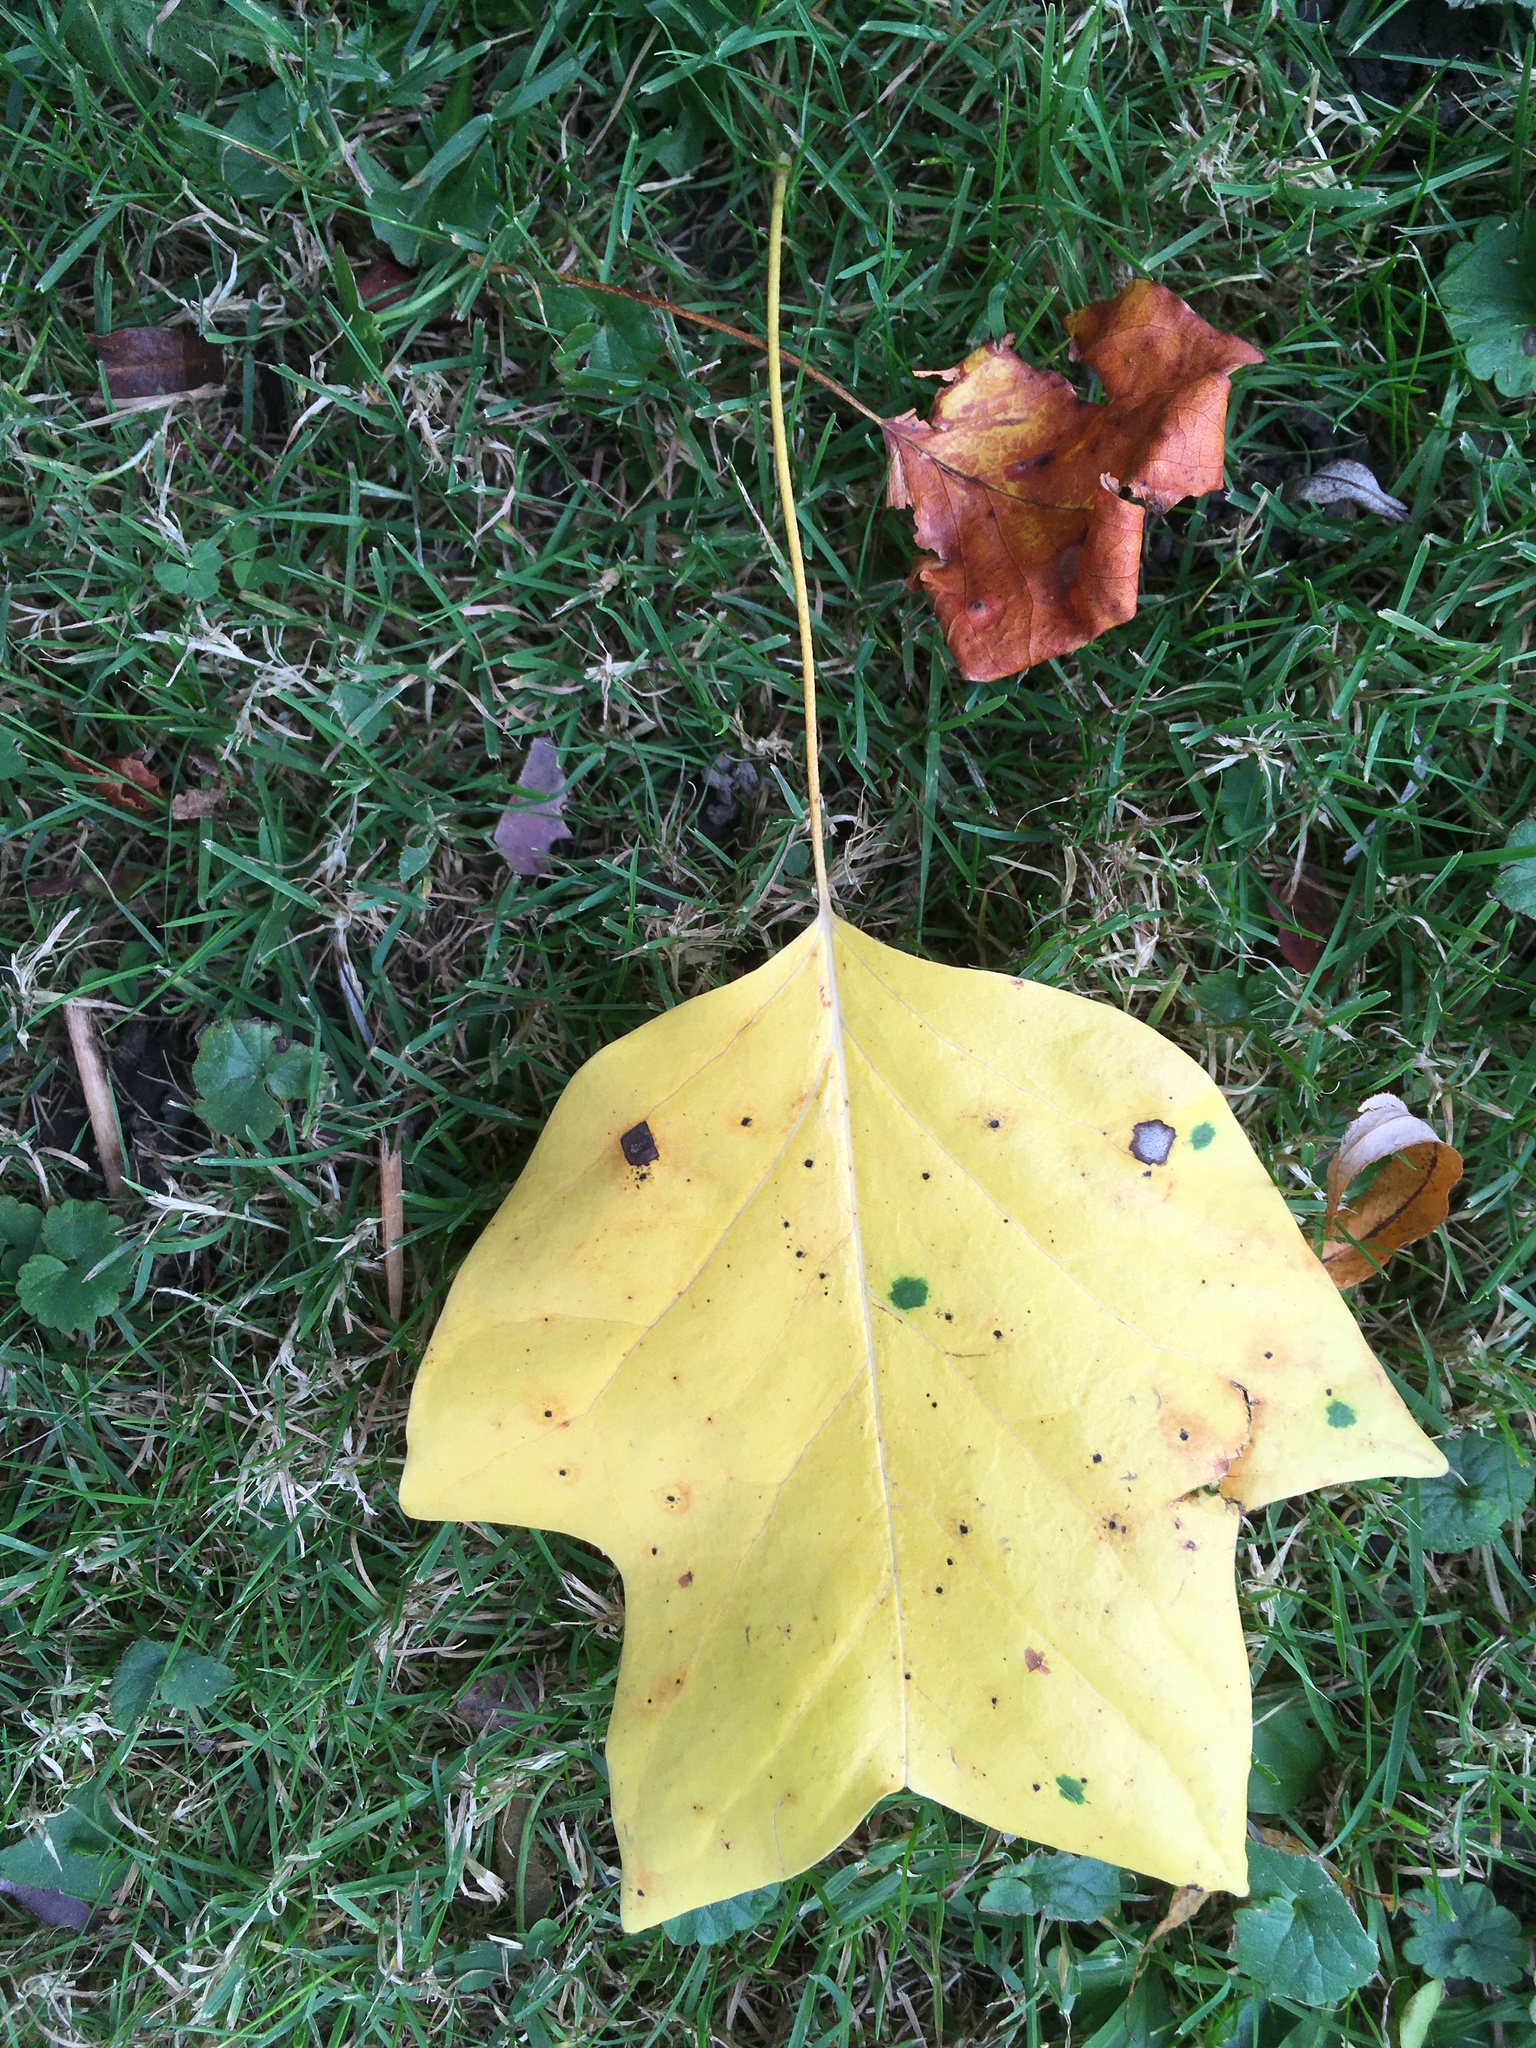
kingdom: Plantae
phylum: Tracheophyta
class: Magnoliopsida
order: Magnoliales
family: Magnoliaceae
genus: Liriodendron
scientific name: Liriodendron tulipifera
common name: Tulip tree
